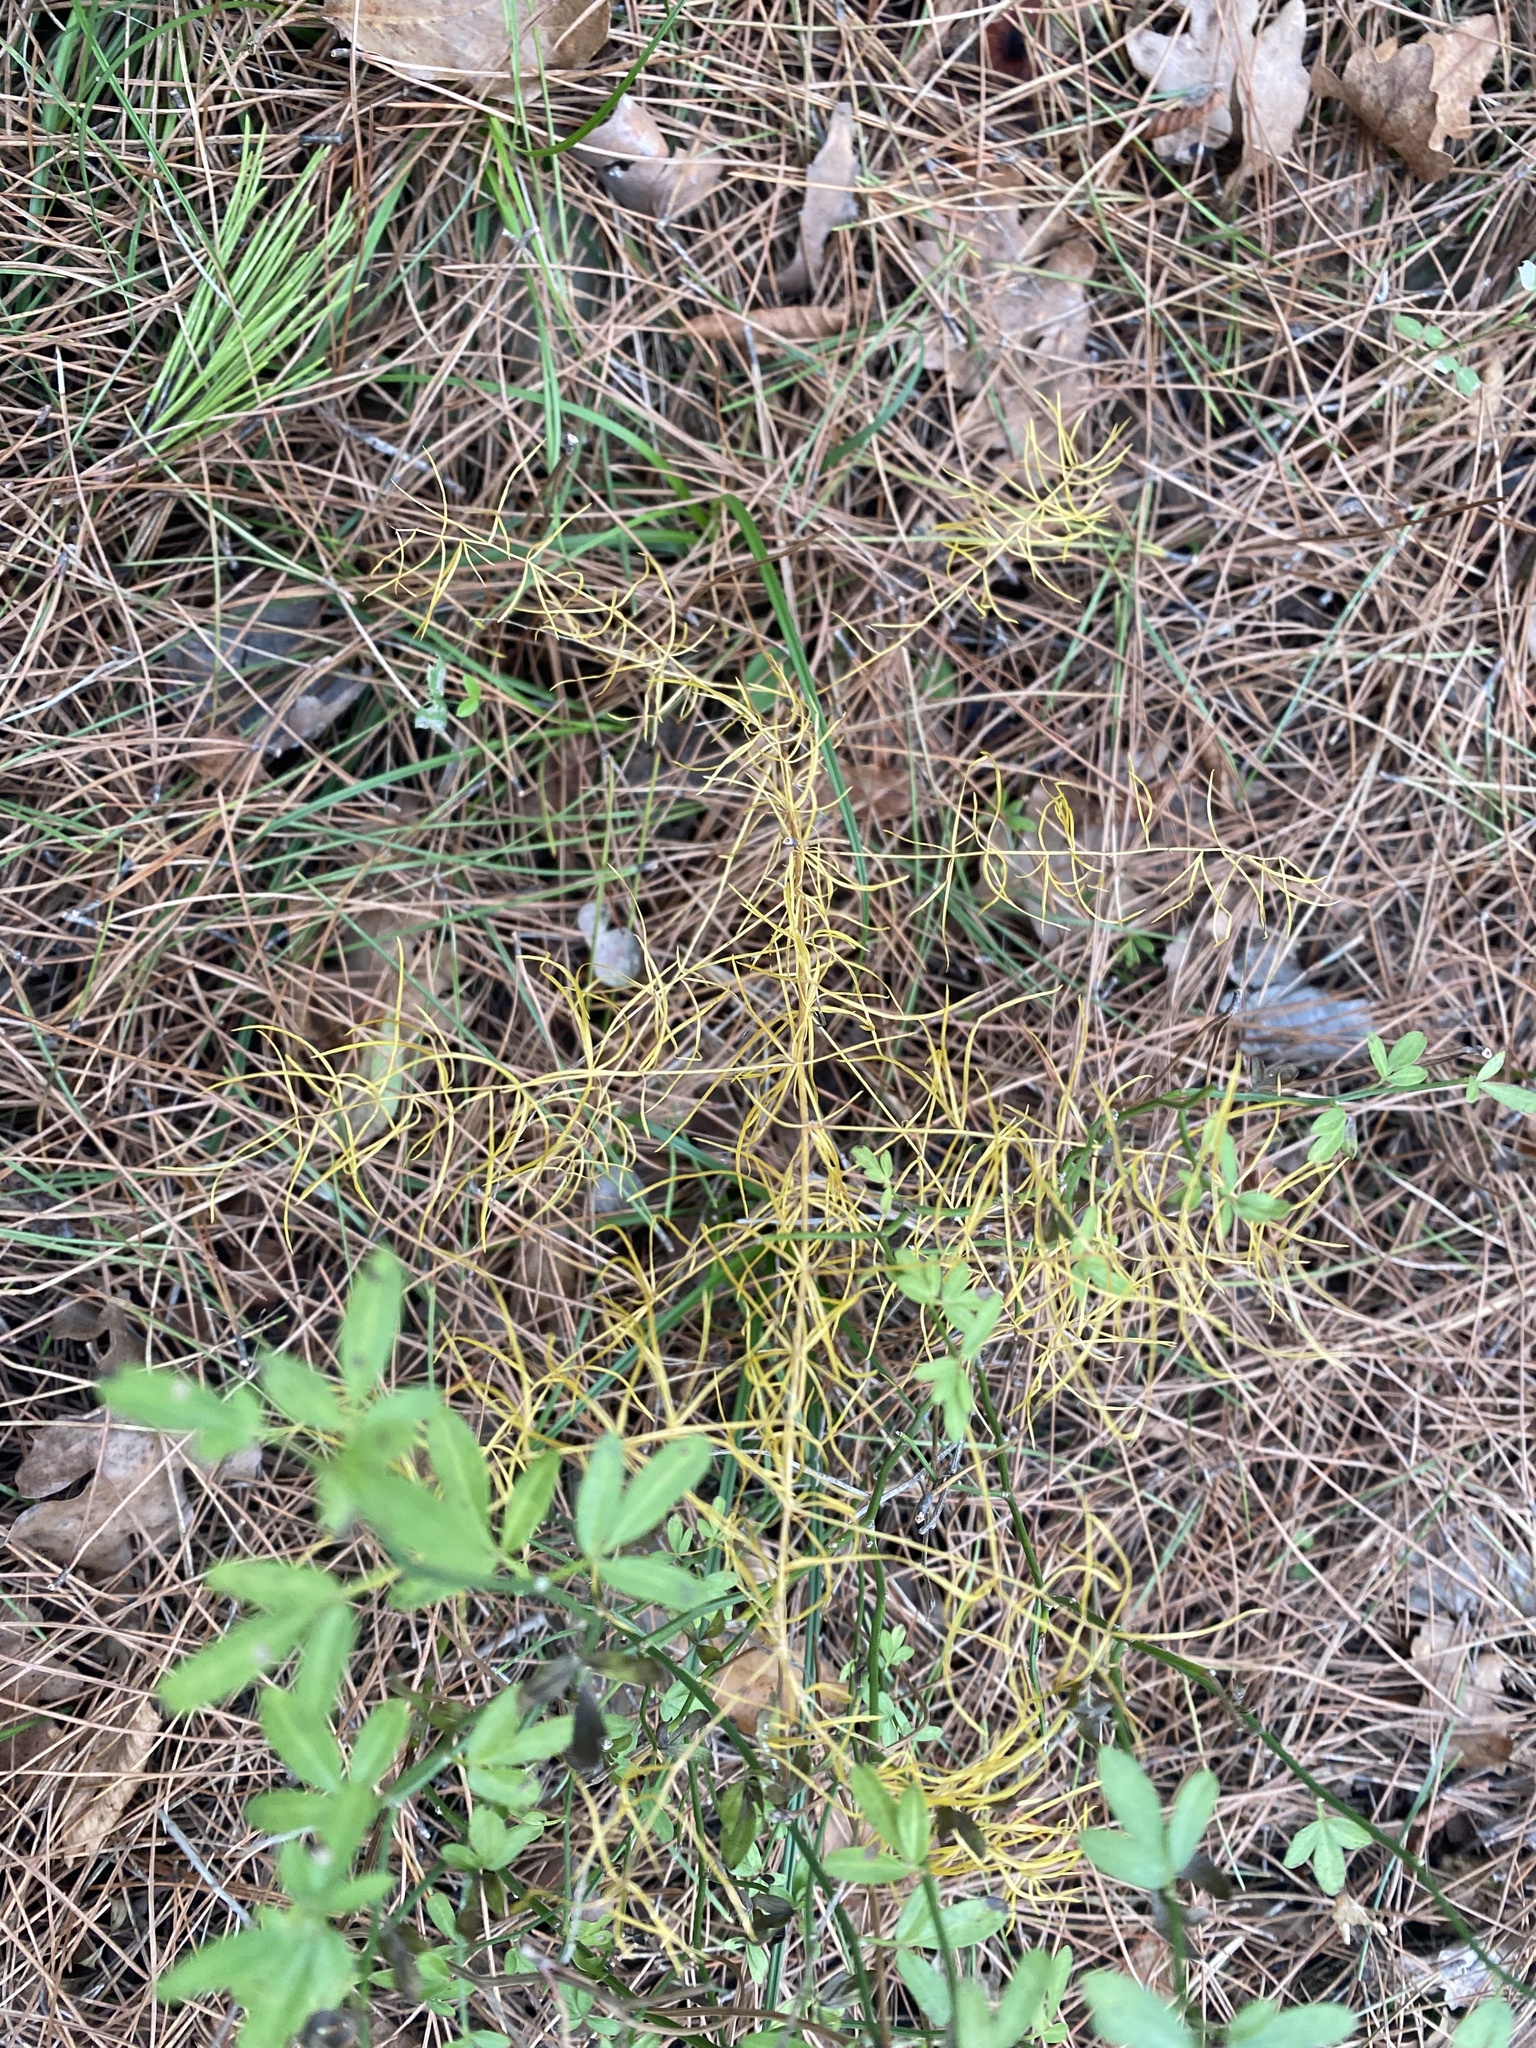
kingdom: Plantae
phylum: Tracheophyta
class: Liliopsida
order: Asparagales
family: Asparagaceae
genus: Asparagus
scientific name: Asparagus verticillatus
